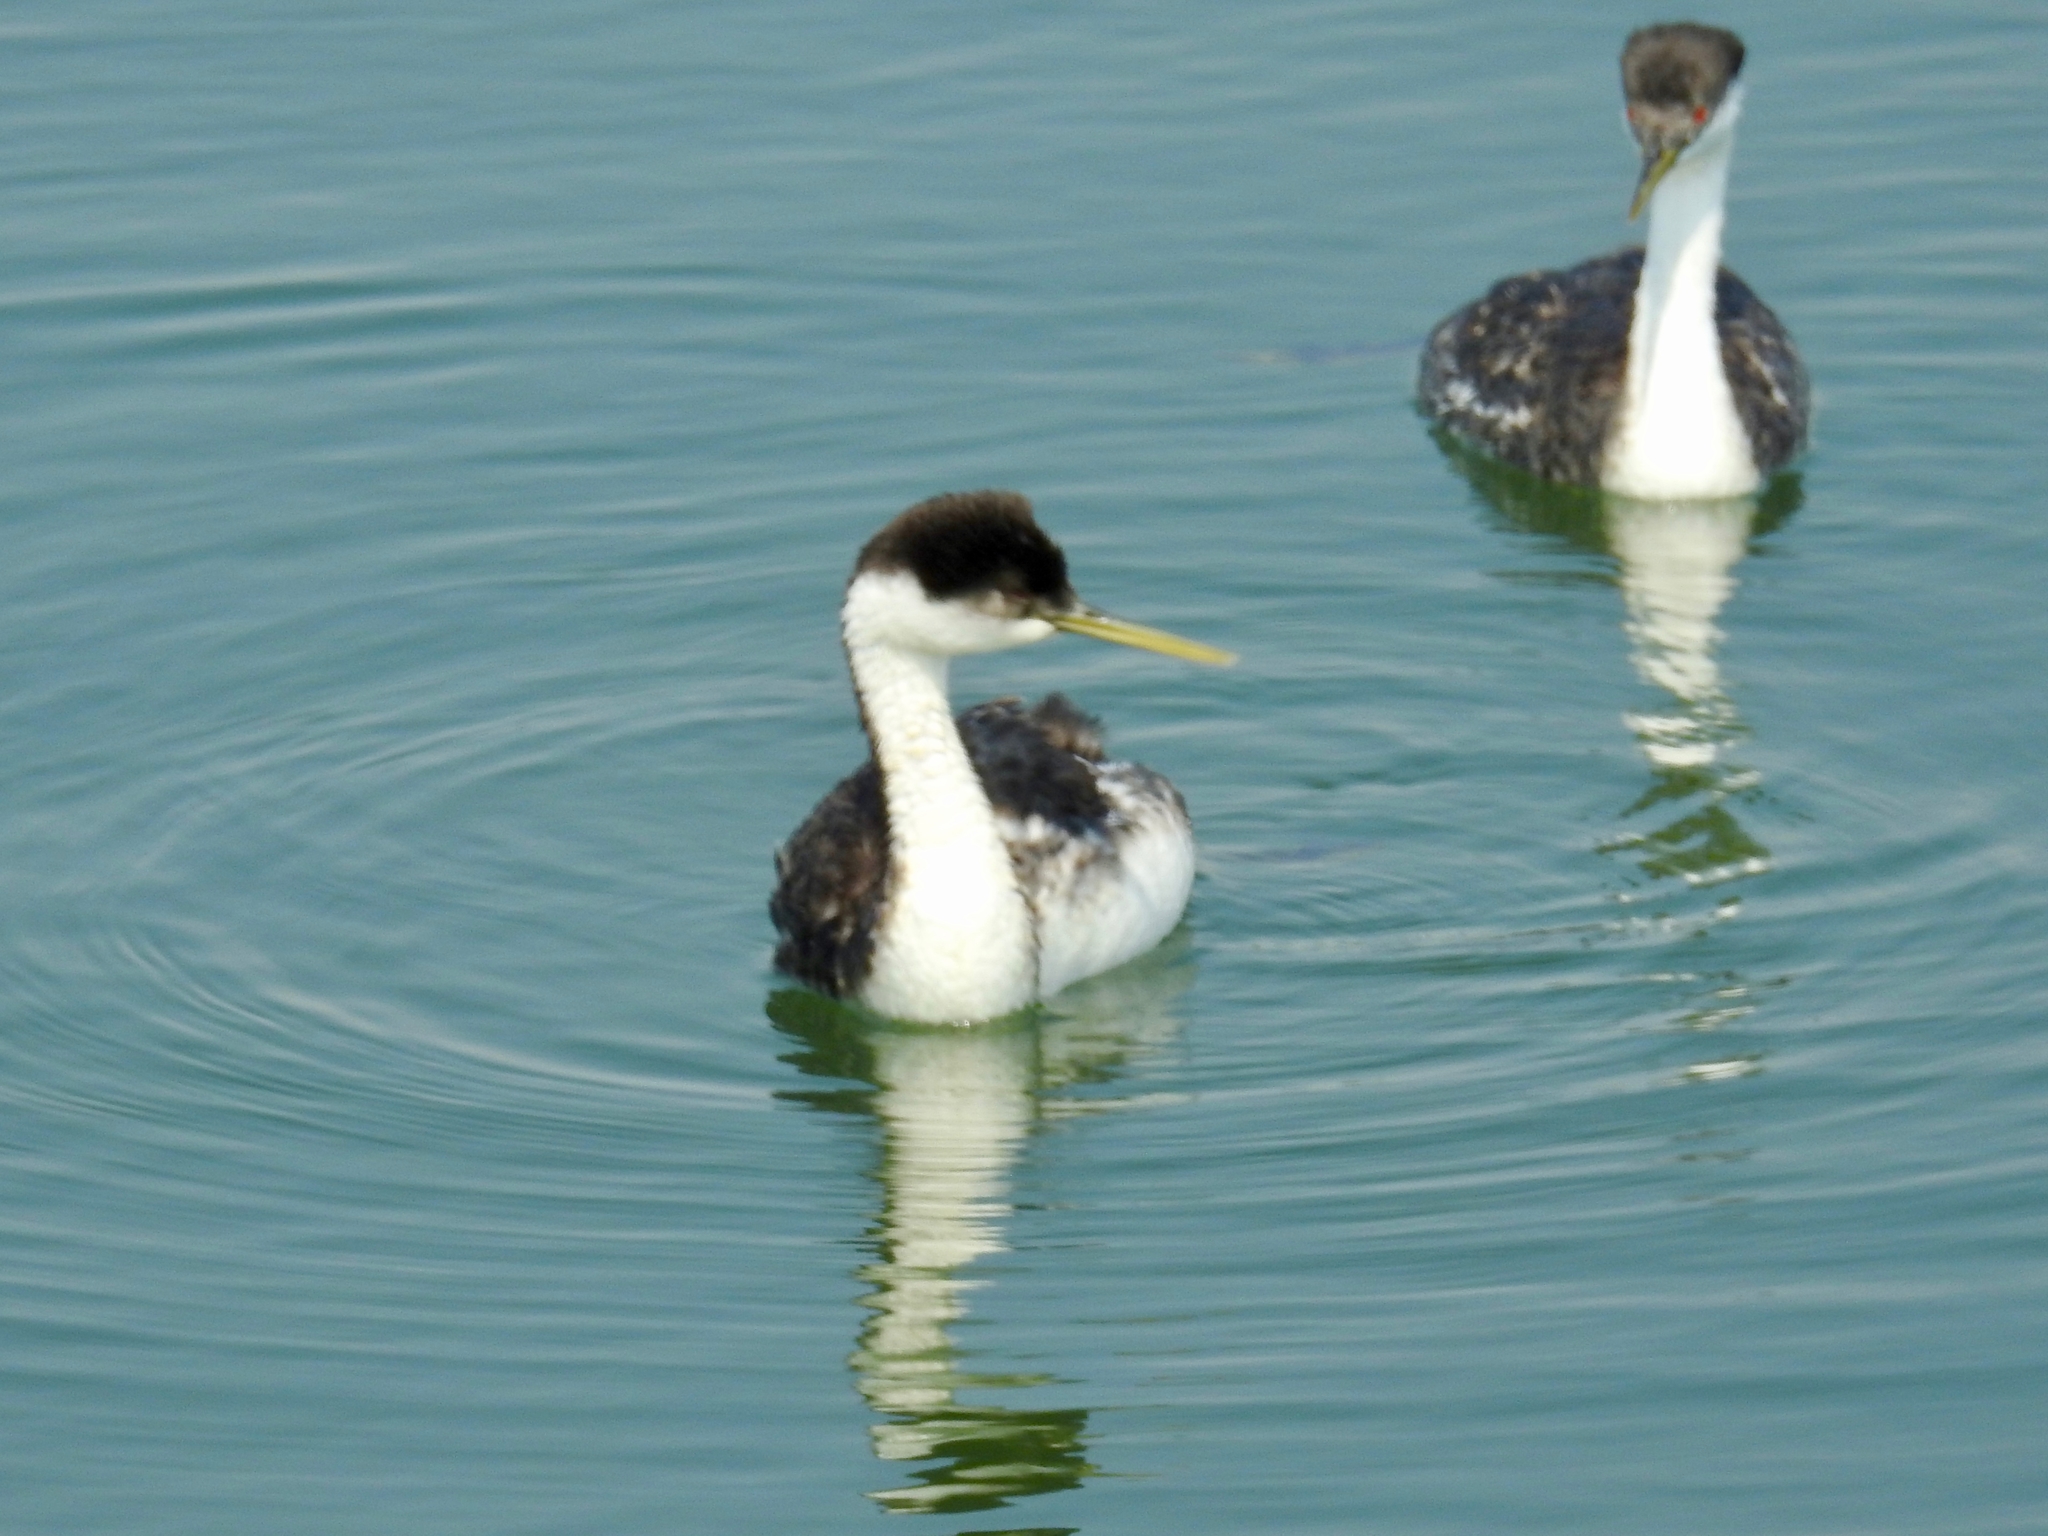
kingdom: Animalia
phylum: Chordata
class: Aves
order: Podicipediformes
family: Podicipedidae
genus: Aechmophorus
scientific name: Aechmophorus occidentalis
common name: Western grebe
